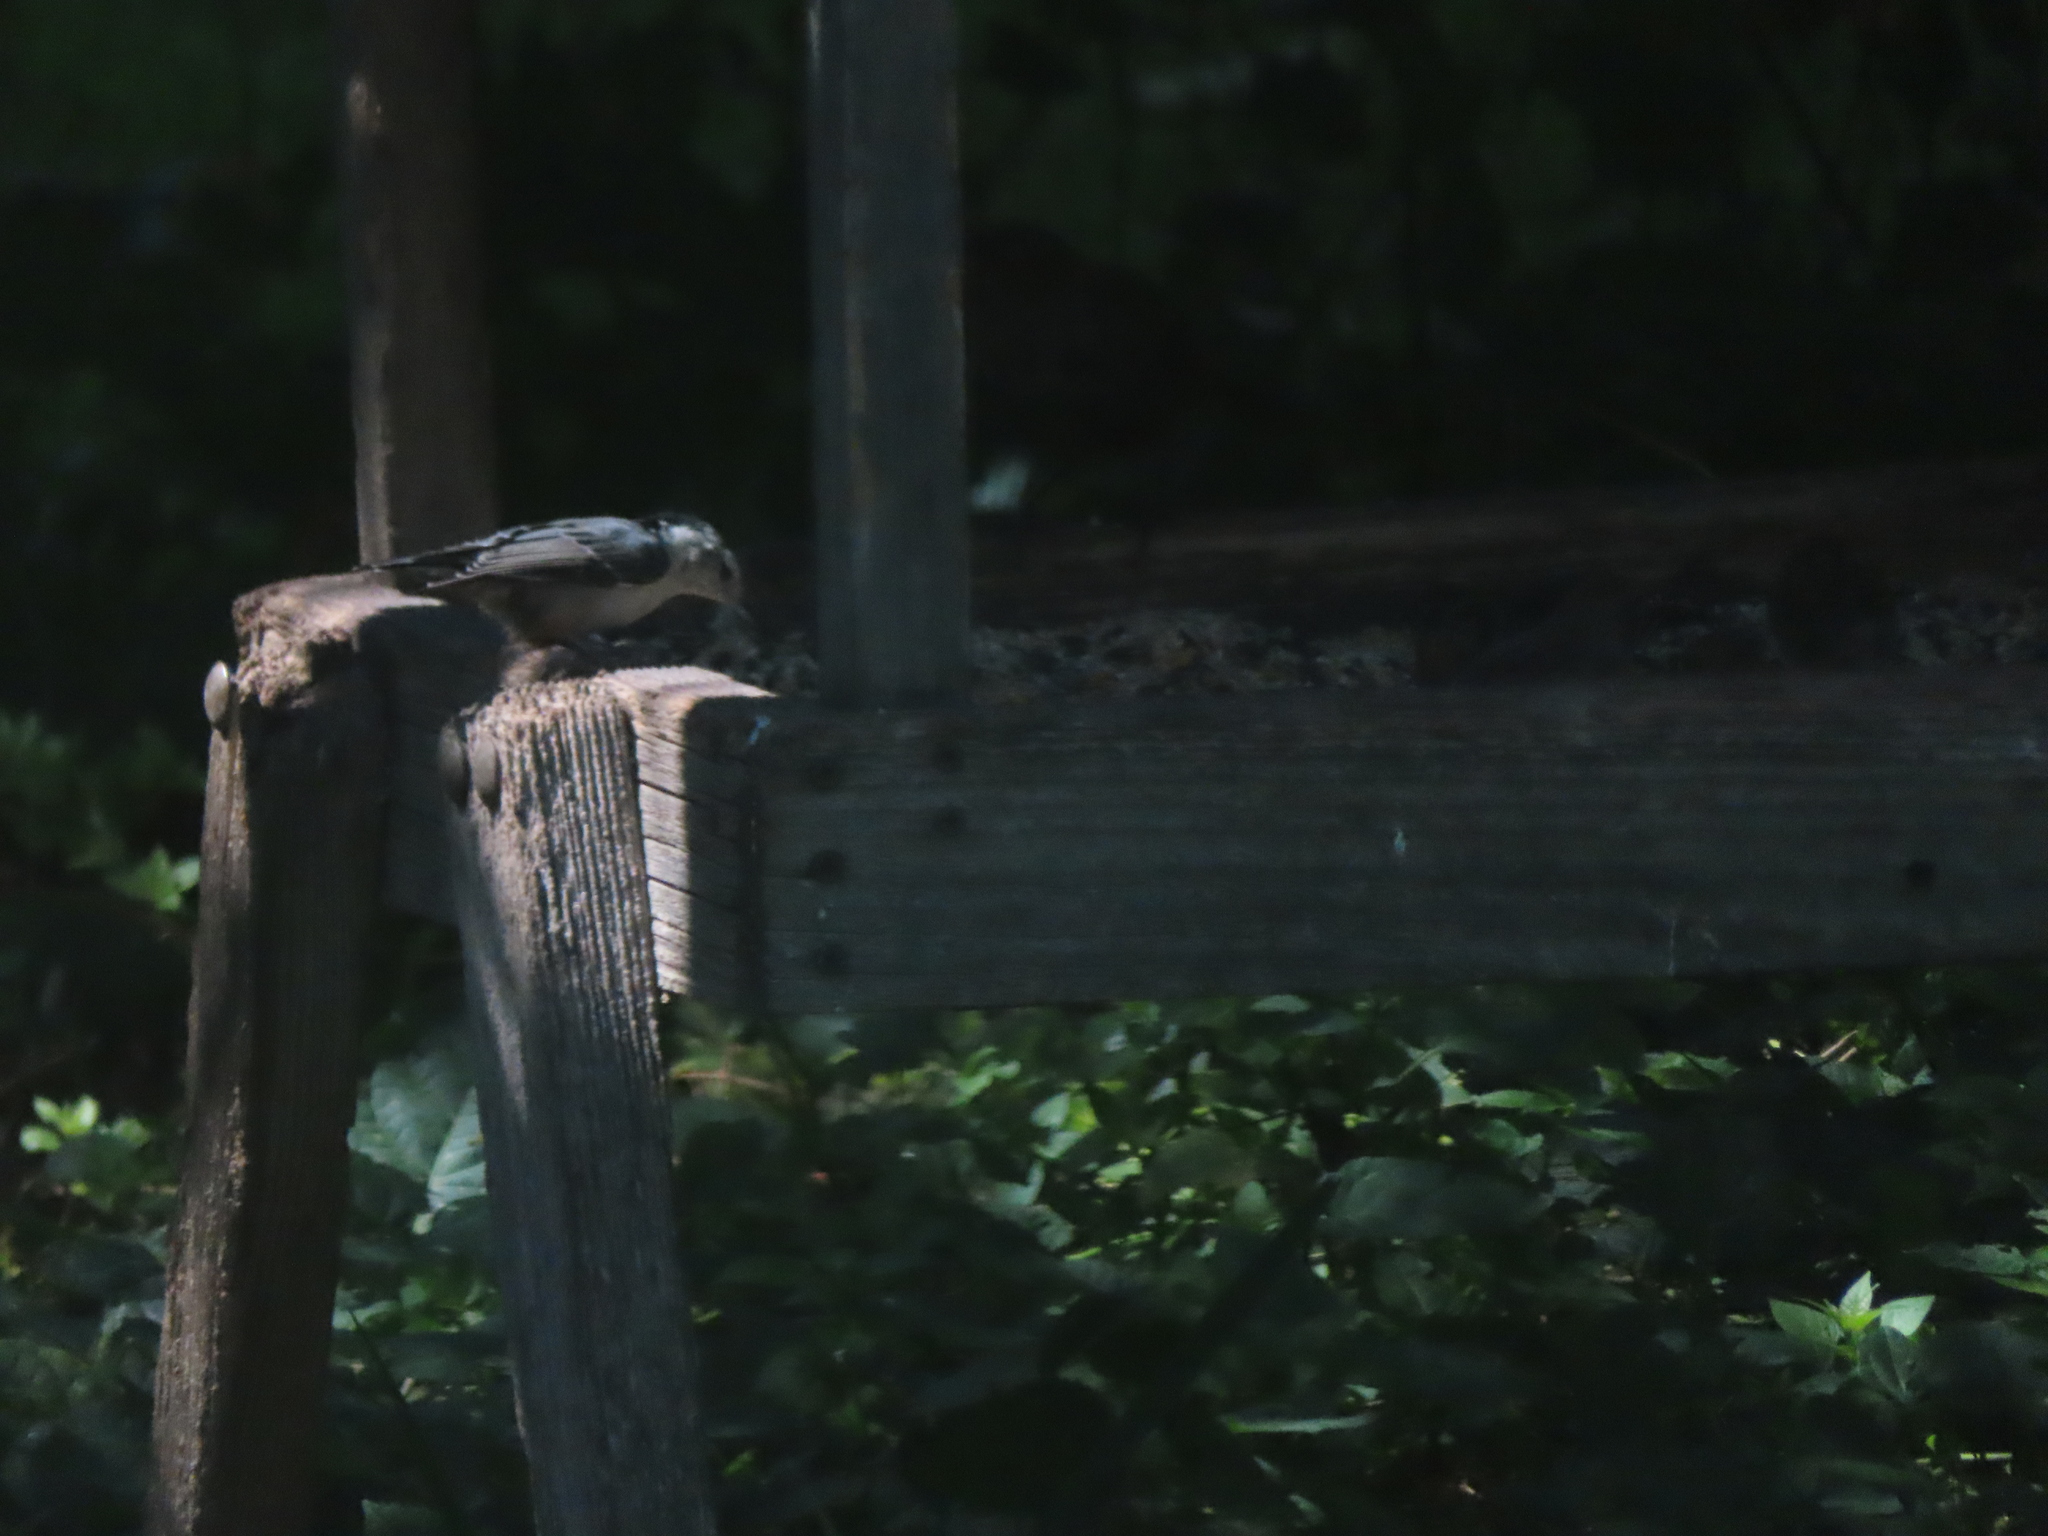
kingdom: Animalia
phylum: Chordata
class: Aves
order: Passeriformes
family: Sittidae
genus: Sitta
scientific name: Sitta carolinensis
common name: White-breasted nuthatch
